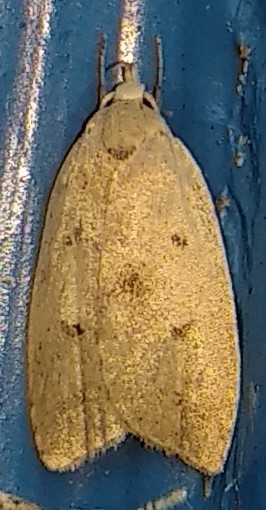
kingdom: Animalia
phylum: Arthropoda
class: Insecta
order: Lepidoptera
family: Peleopodidae
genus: Machimia
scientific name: Machimia tentoriferella
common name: Gold-striped leaftier moth
